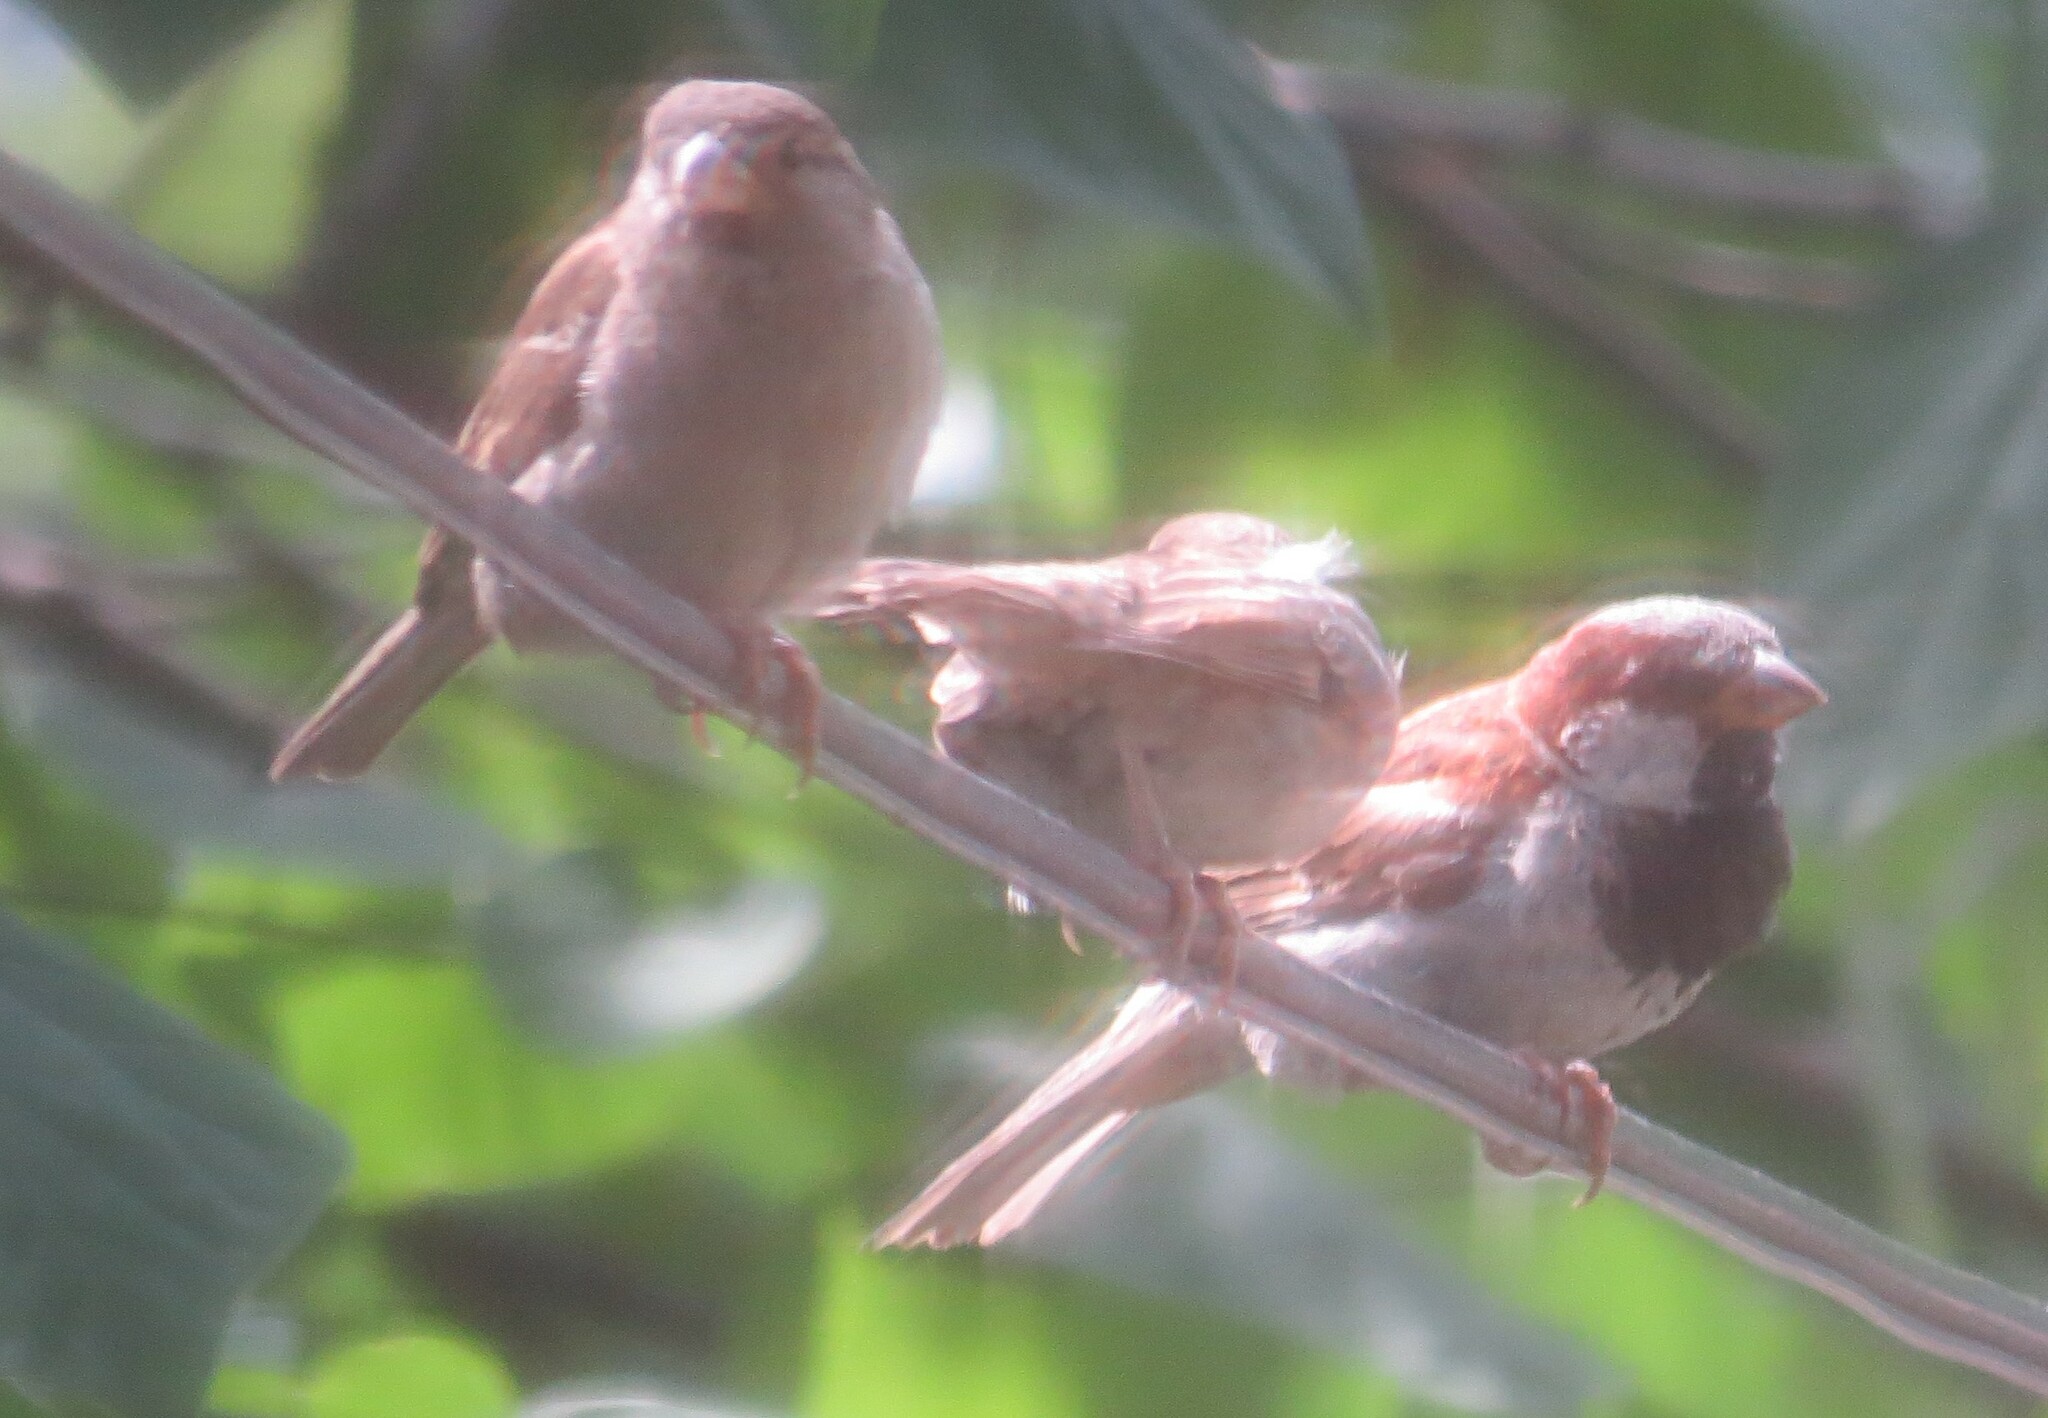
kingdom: Animalia
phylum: Chordata
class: Aves
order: Passeriformes
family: Passeridae
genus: Passer
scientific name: Passer domesticus
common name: House sparrow
